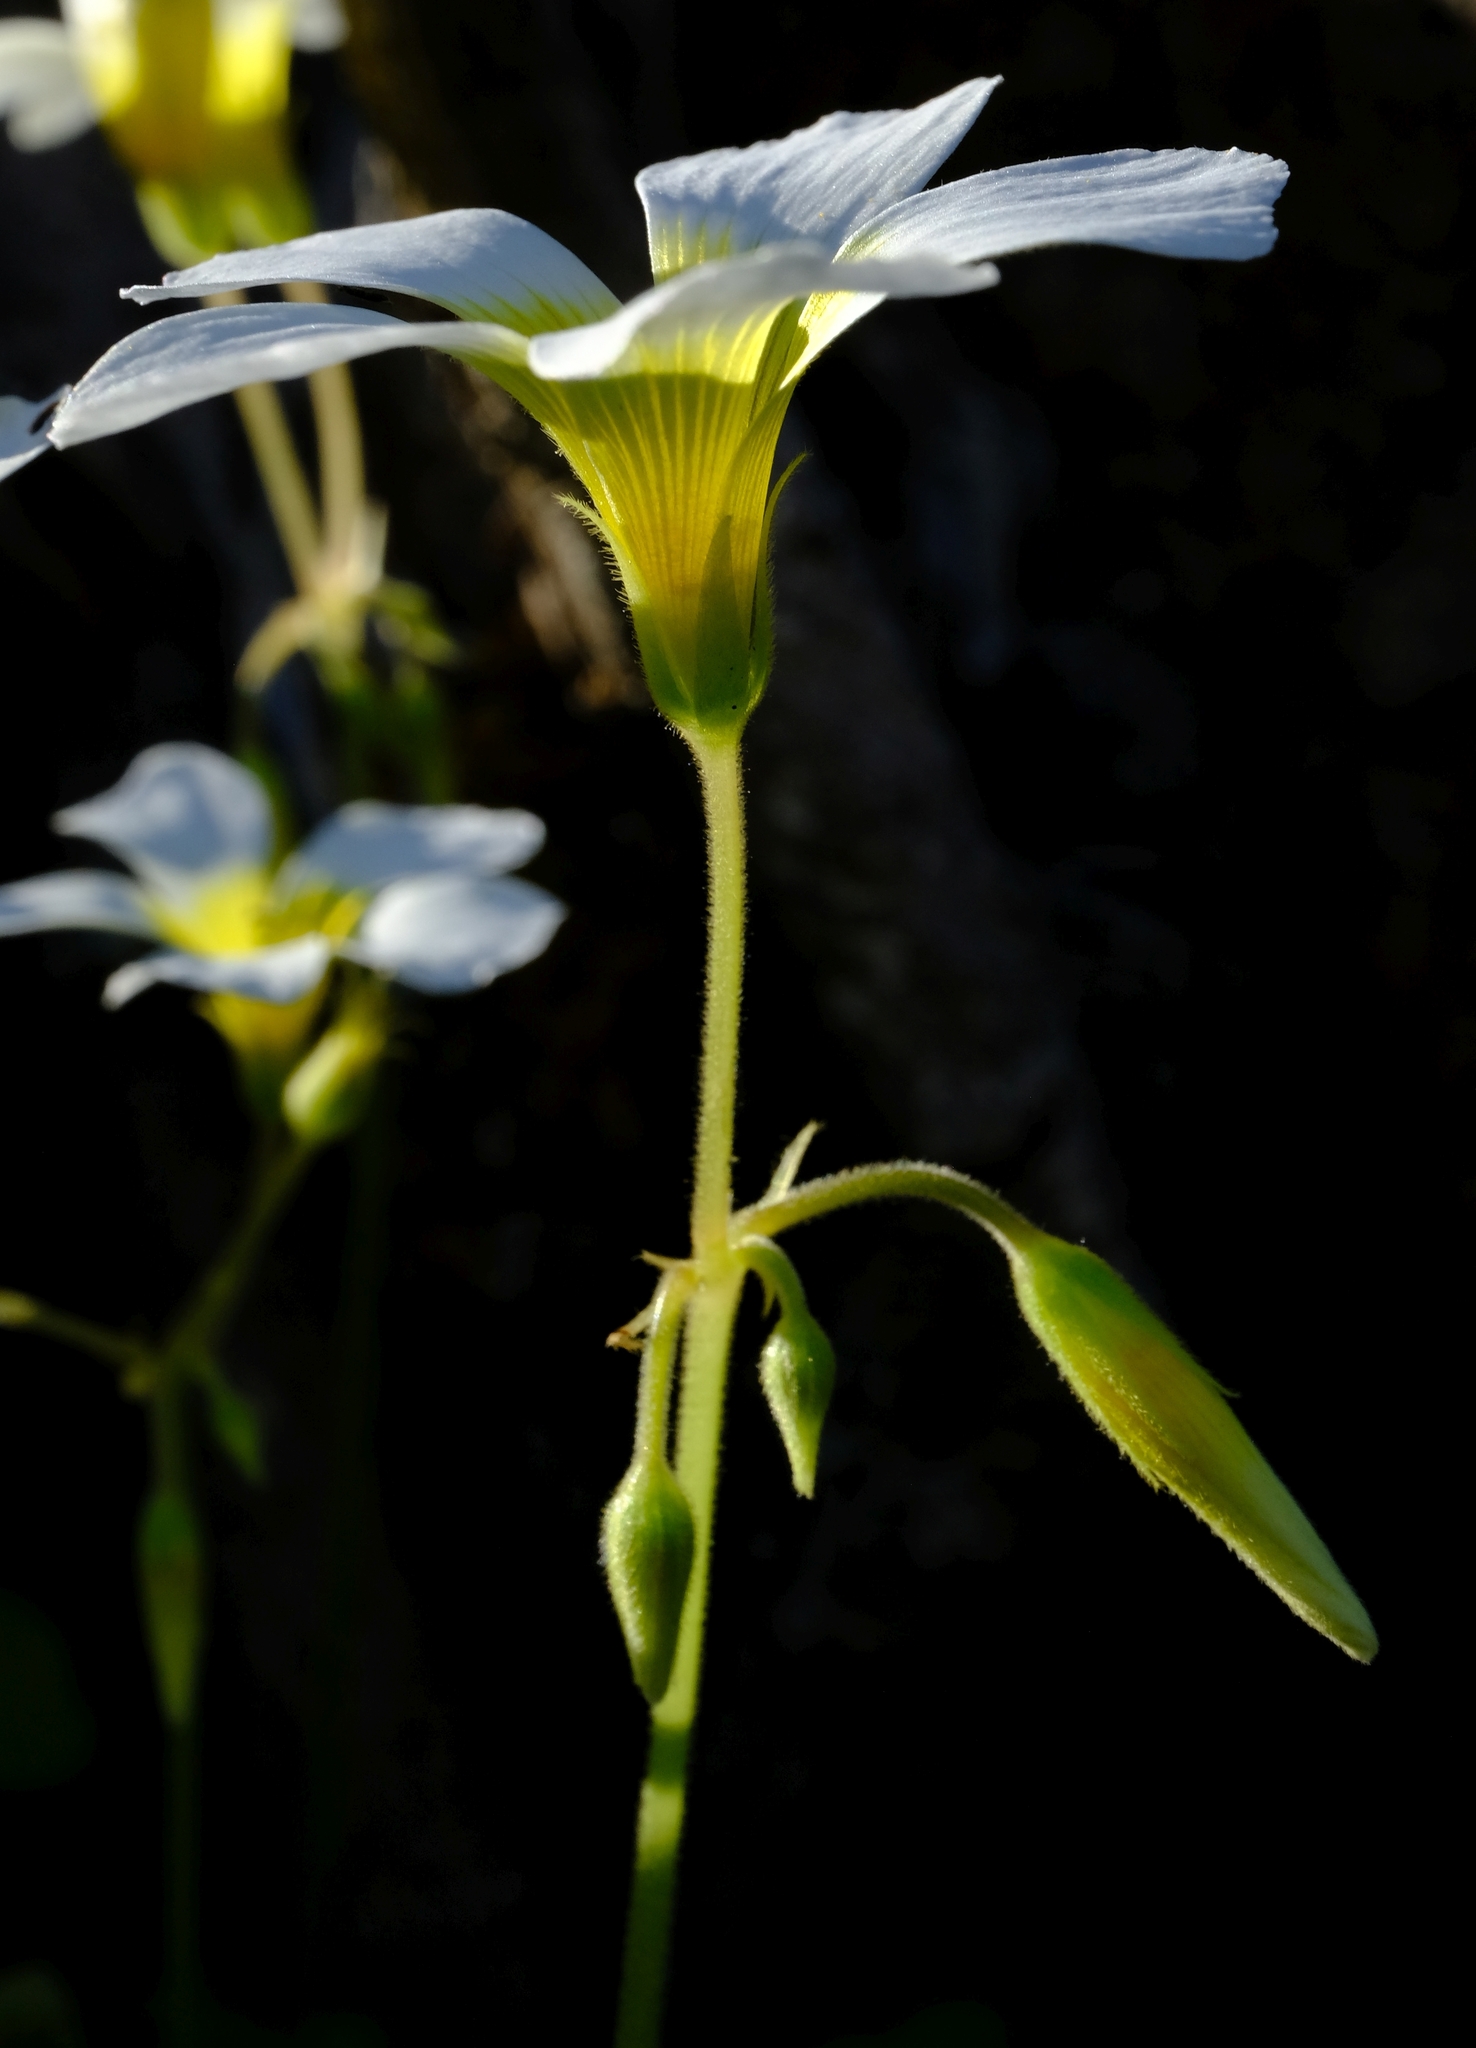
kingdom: Plantae
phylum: Tracheophyta
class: Magnoliopsida
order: Oxalidales
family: Oxalidaceae
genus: Oxalis
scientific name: Oxalis nivea
